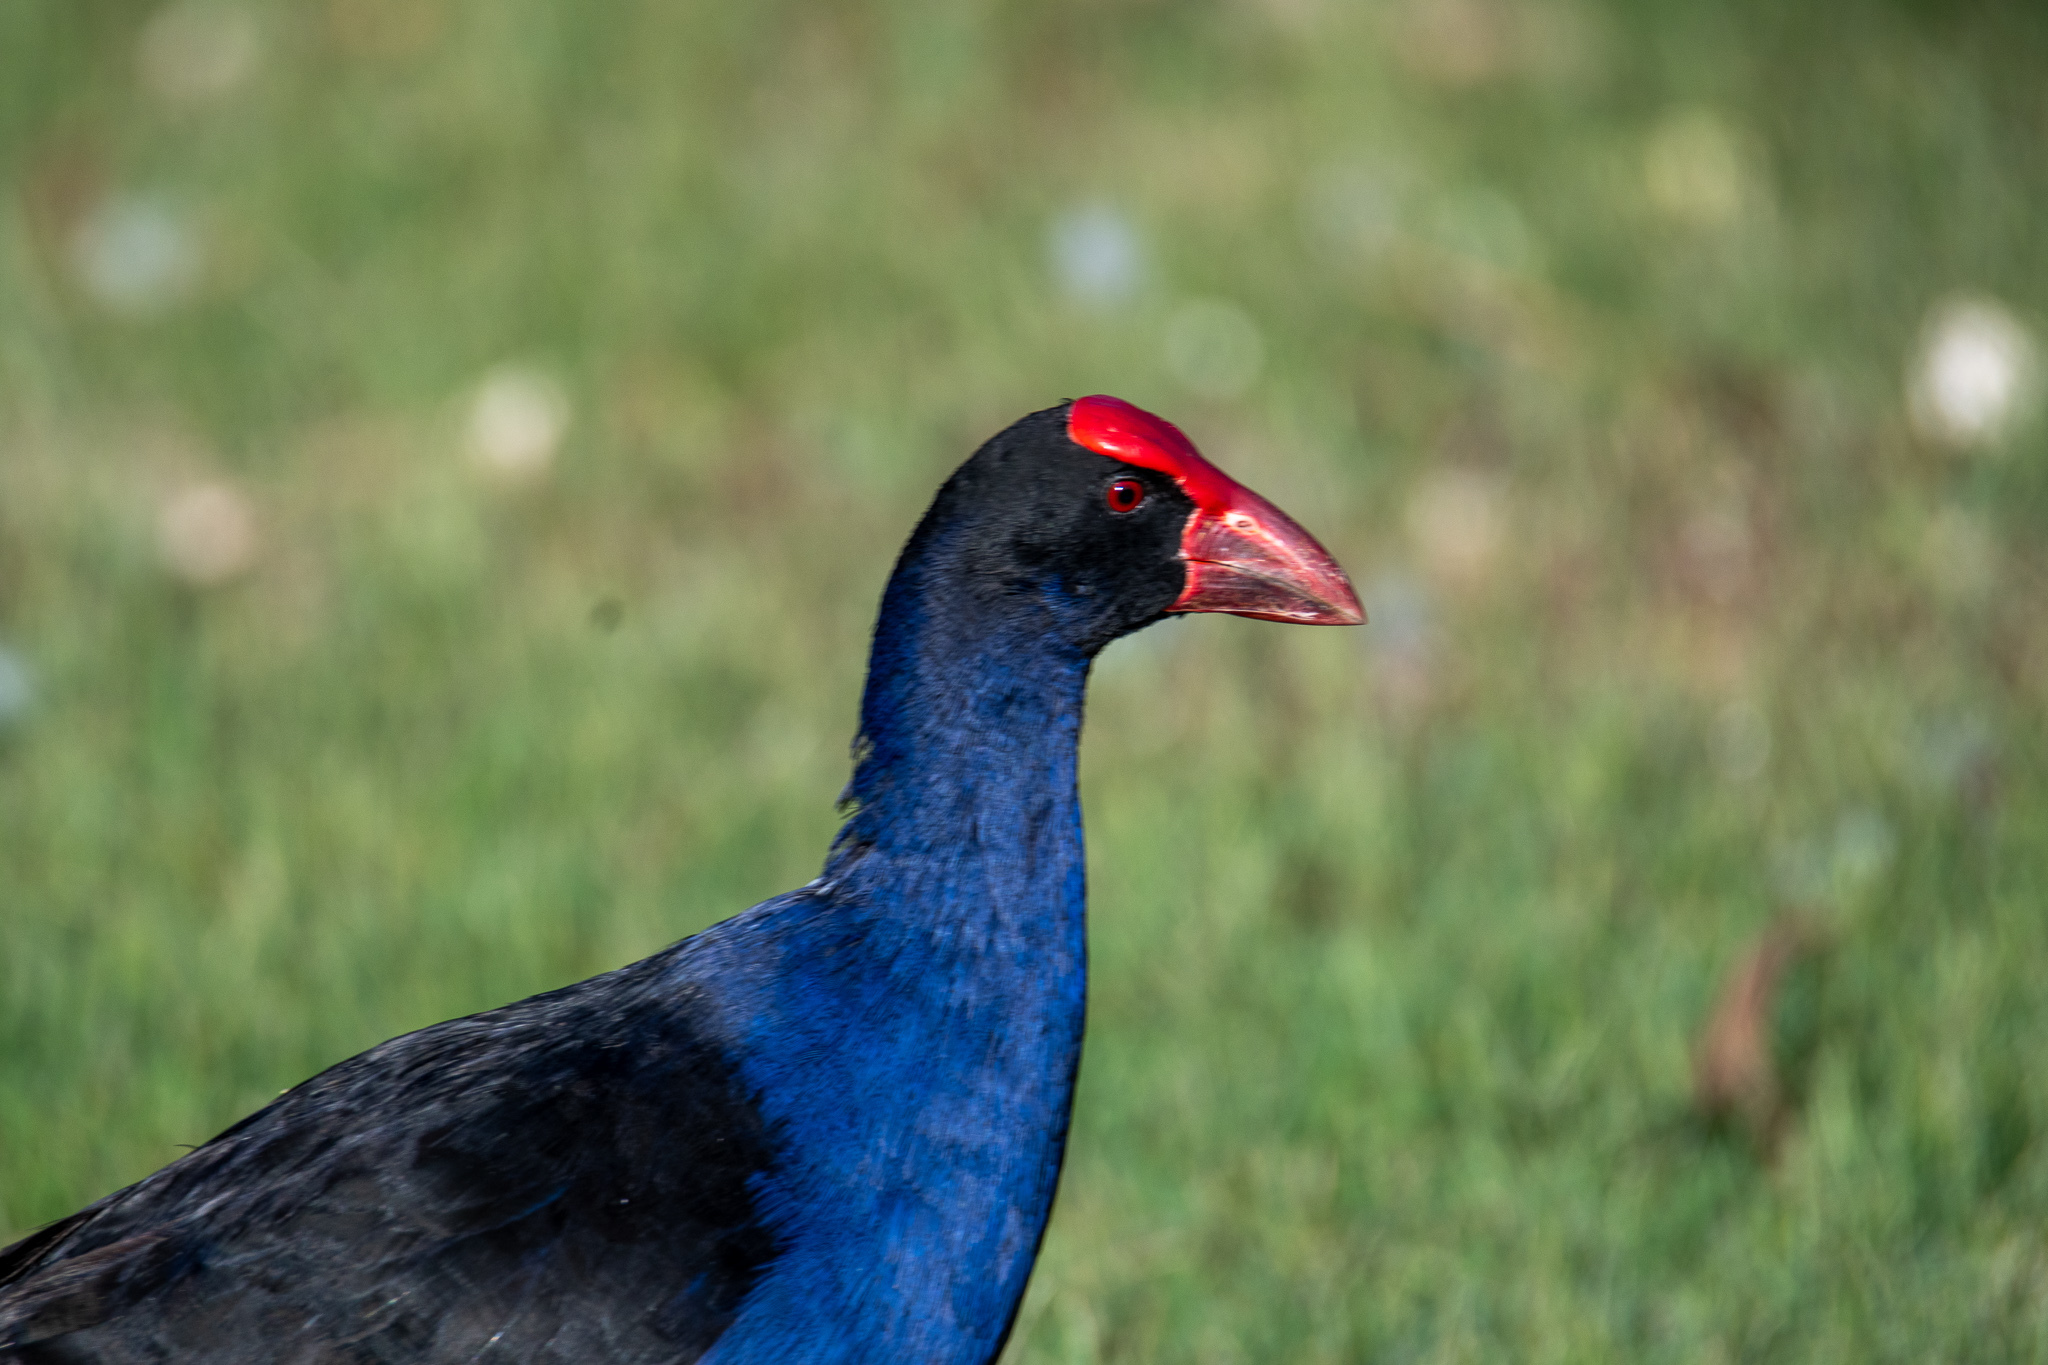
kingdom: Animalia
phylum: Chordata
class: Aves
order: Gruiformes
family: Rallidae
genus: Porphyrio
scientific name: Porphyrio melanotus
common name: Australasian swamphen
